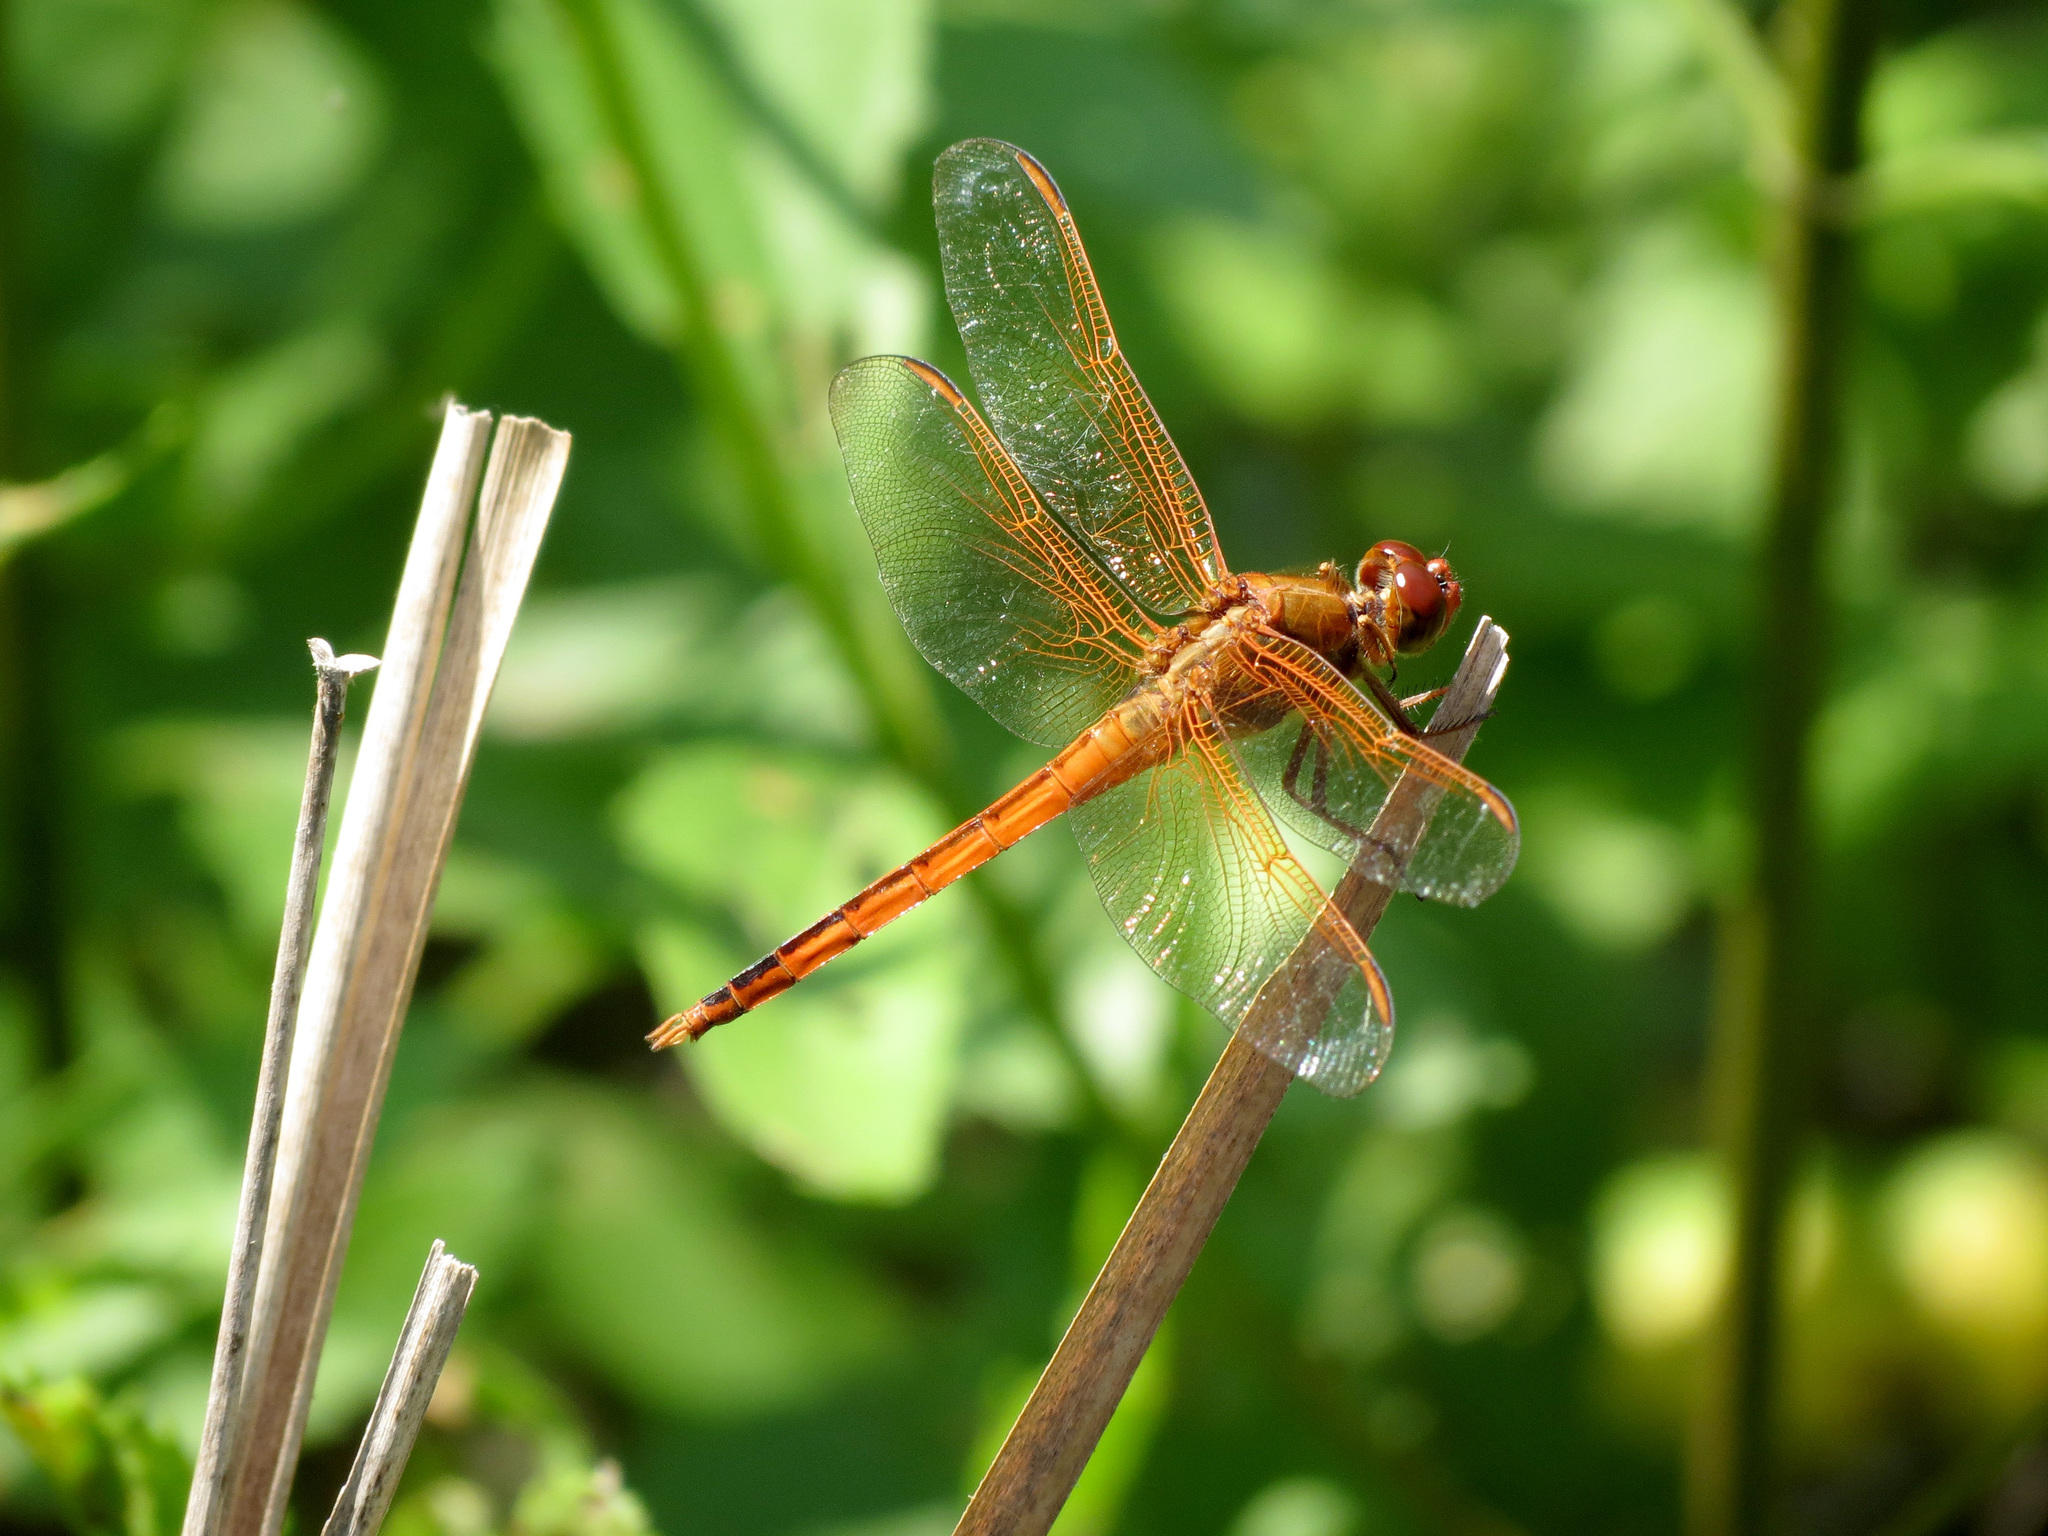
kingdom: Animalia
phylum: Arthropoda
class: Insecta
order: Odonata
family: Libellulidae
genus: Libellula
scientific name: Libellula needhami
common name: Needham's skimmer
